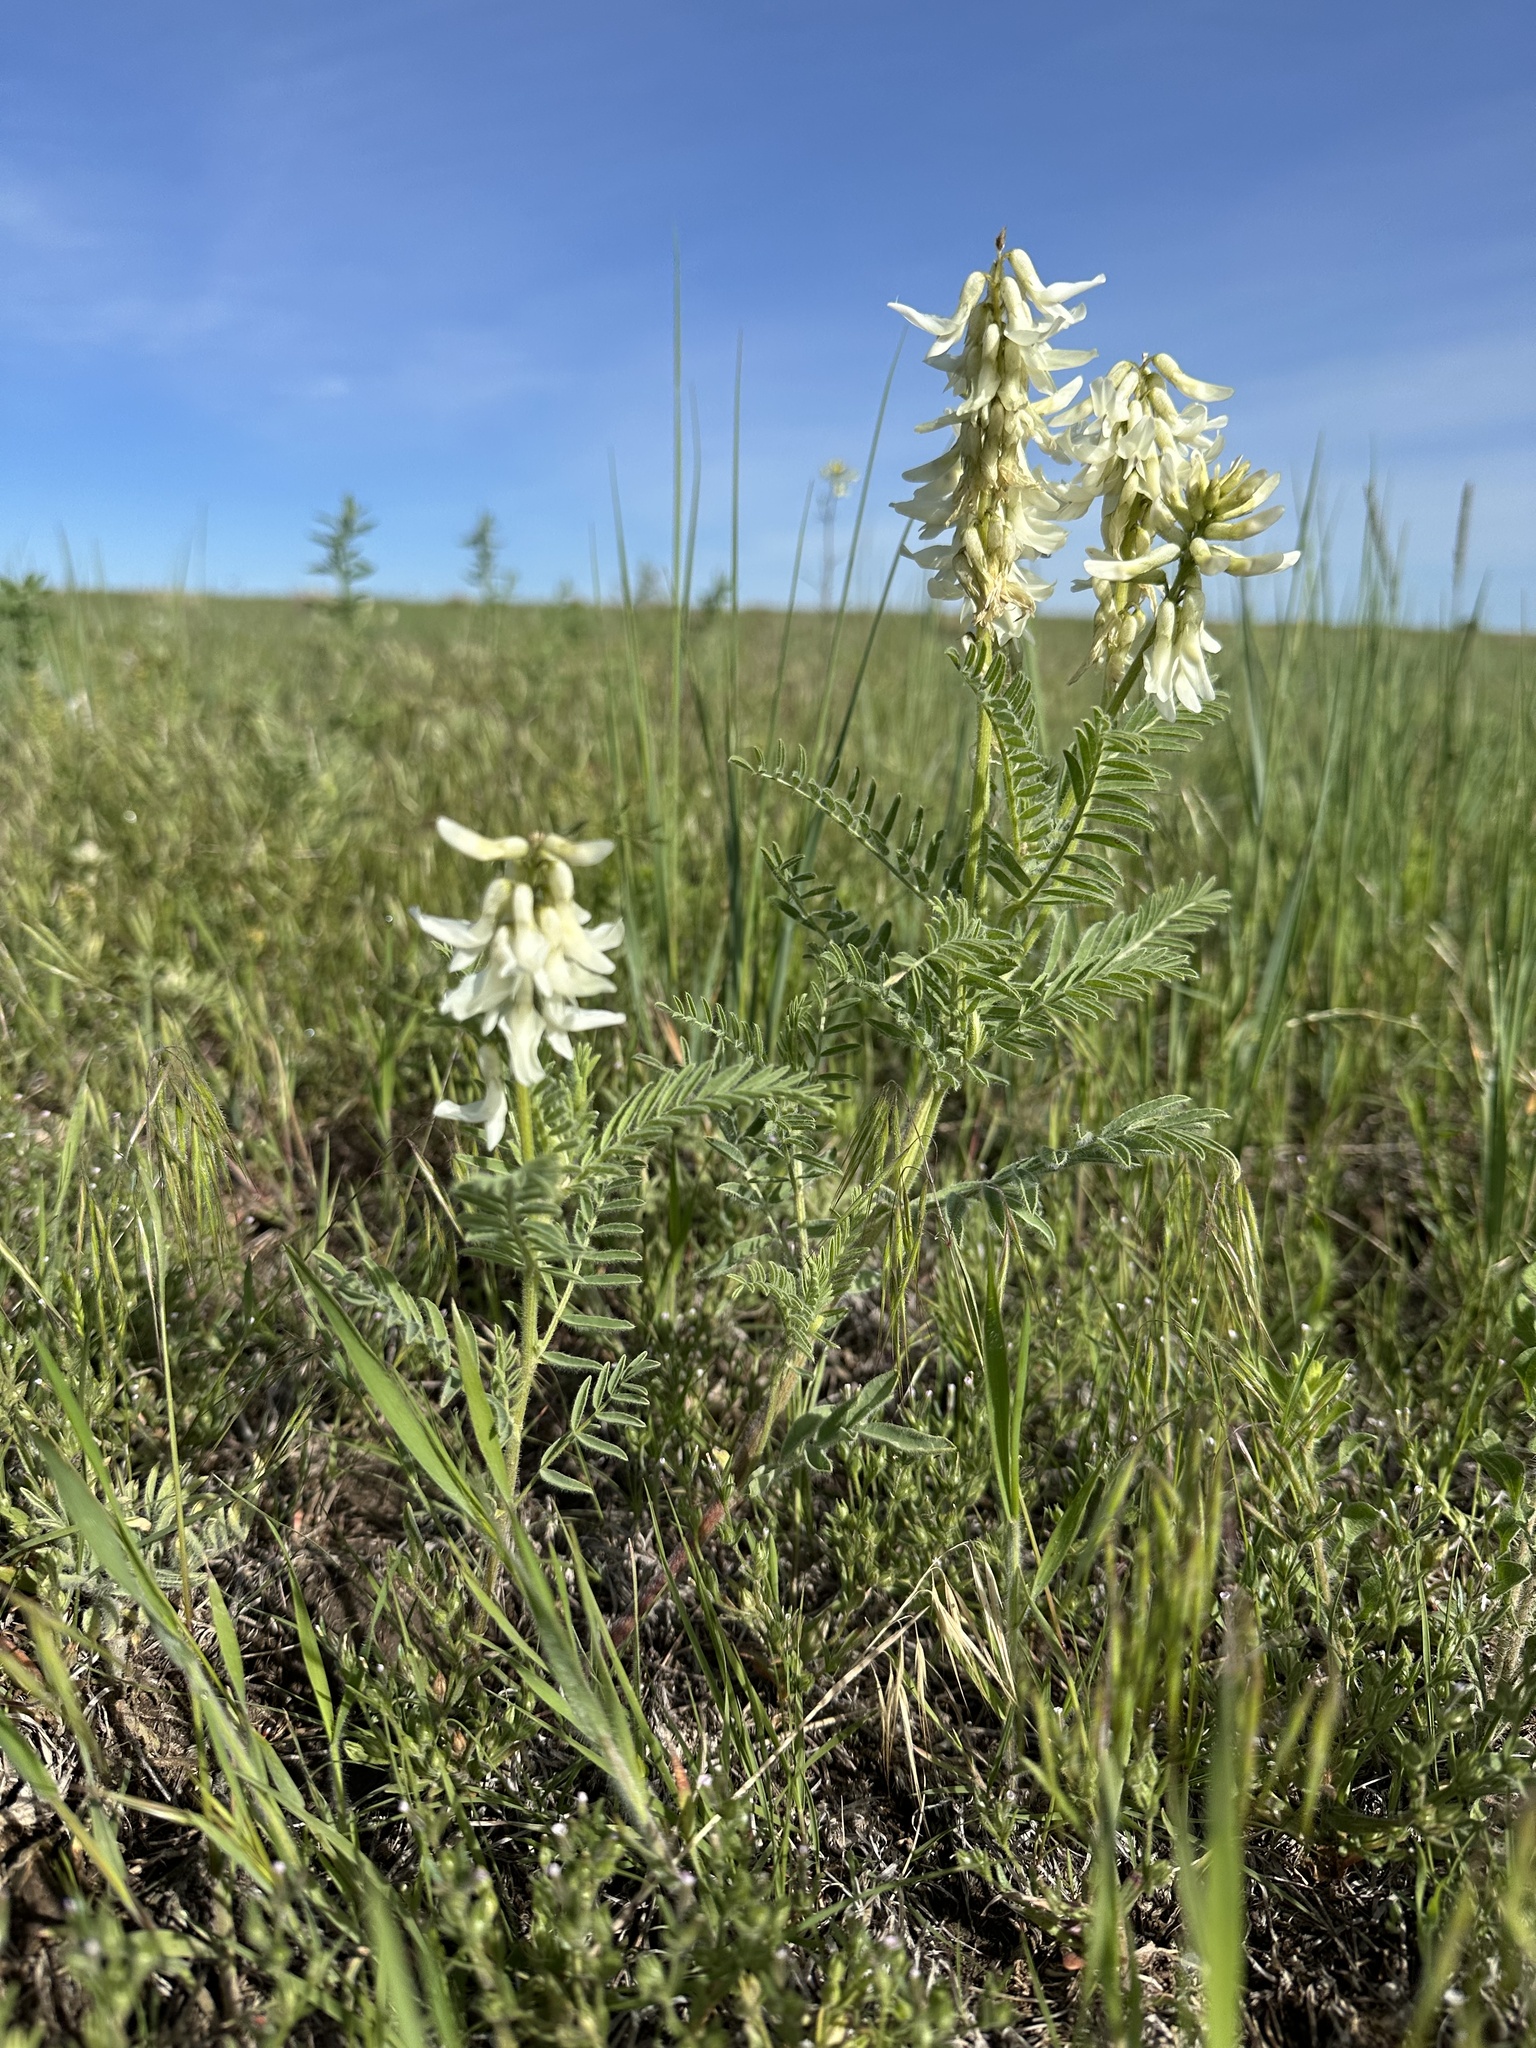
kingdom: Plantae
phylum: Tracheophyta
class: Magnoliopsida
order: Fabales
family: Fabaceae
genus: Astragalus
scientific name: Astragalus drummondii
